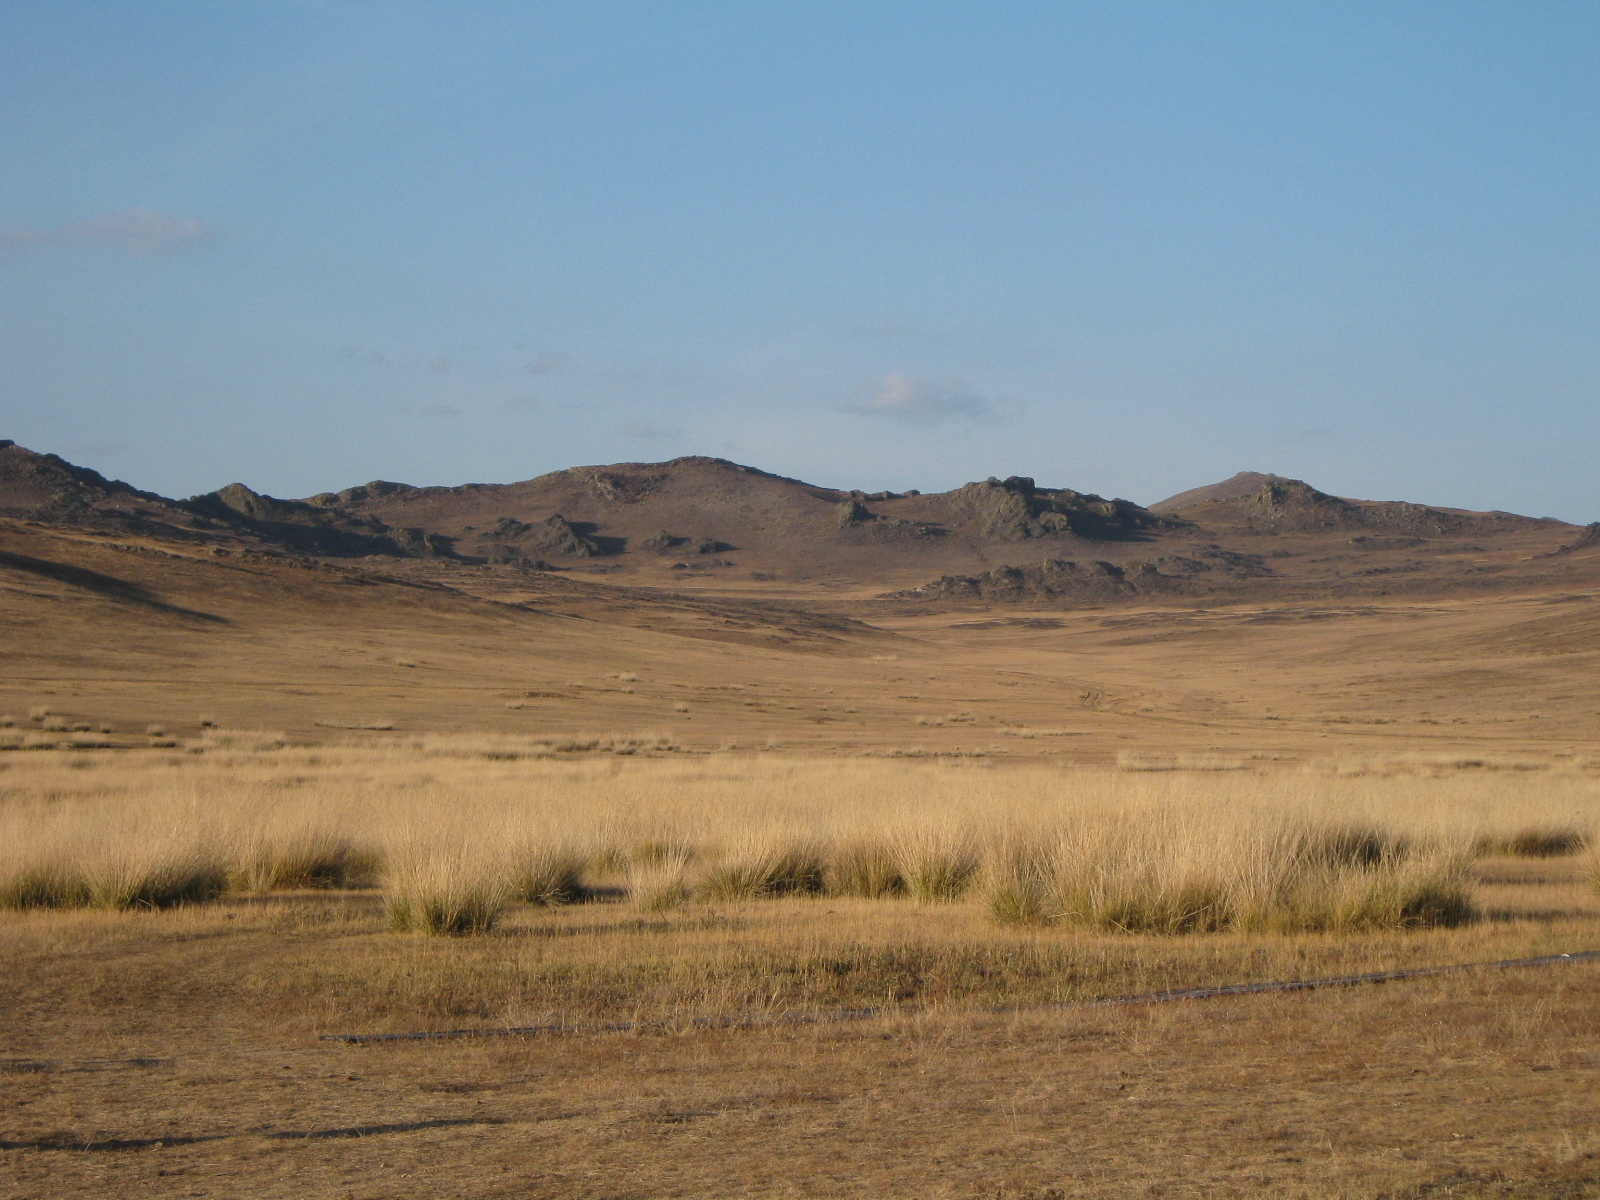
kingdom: Plantae
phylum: Tracheophyta
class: Liliopsida
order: Poales
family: Poaceae
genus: Neotrinia
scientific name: Neotrinia splendens
